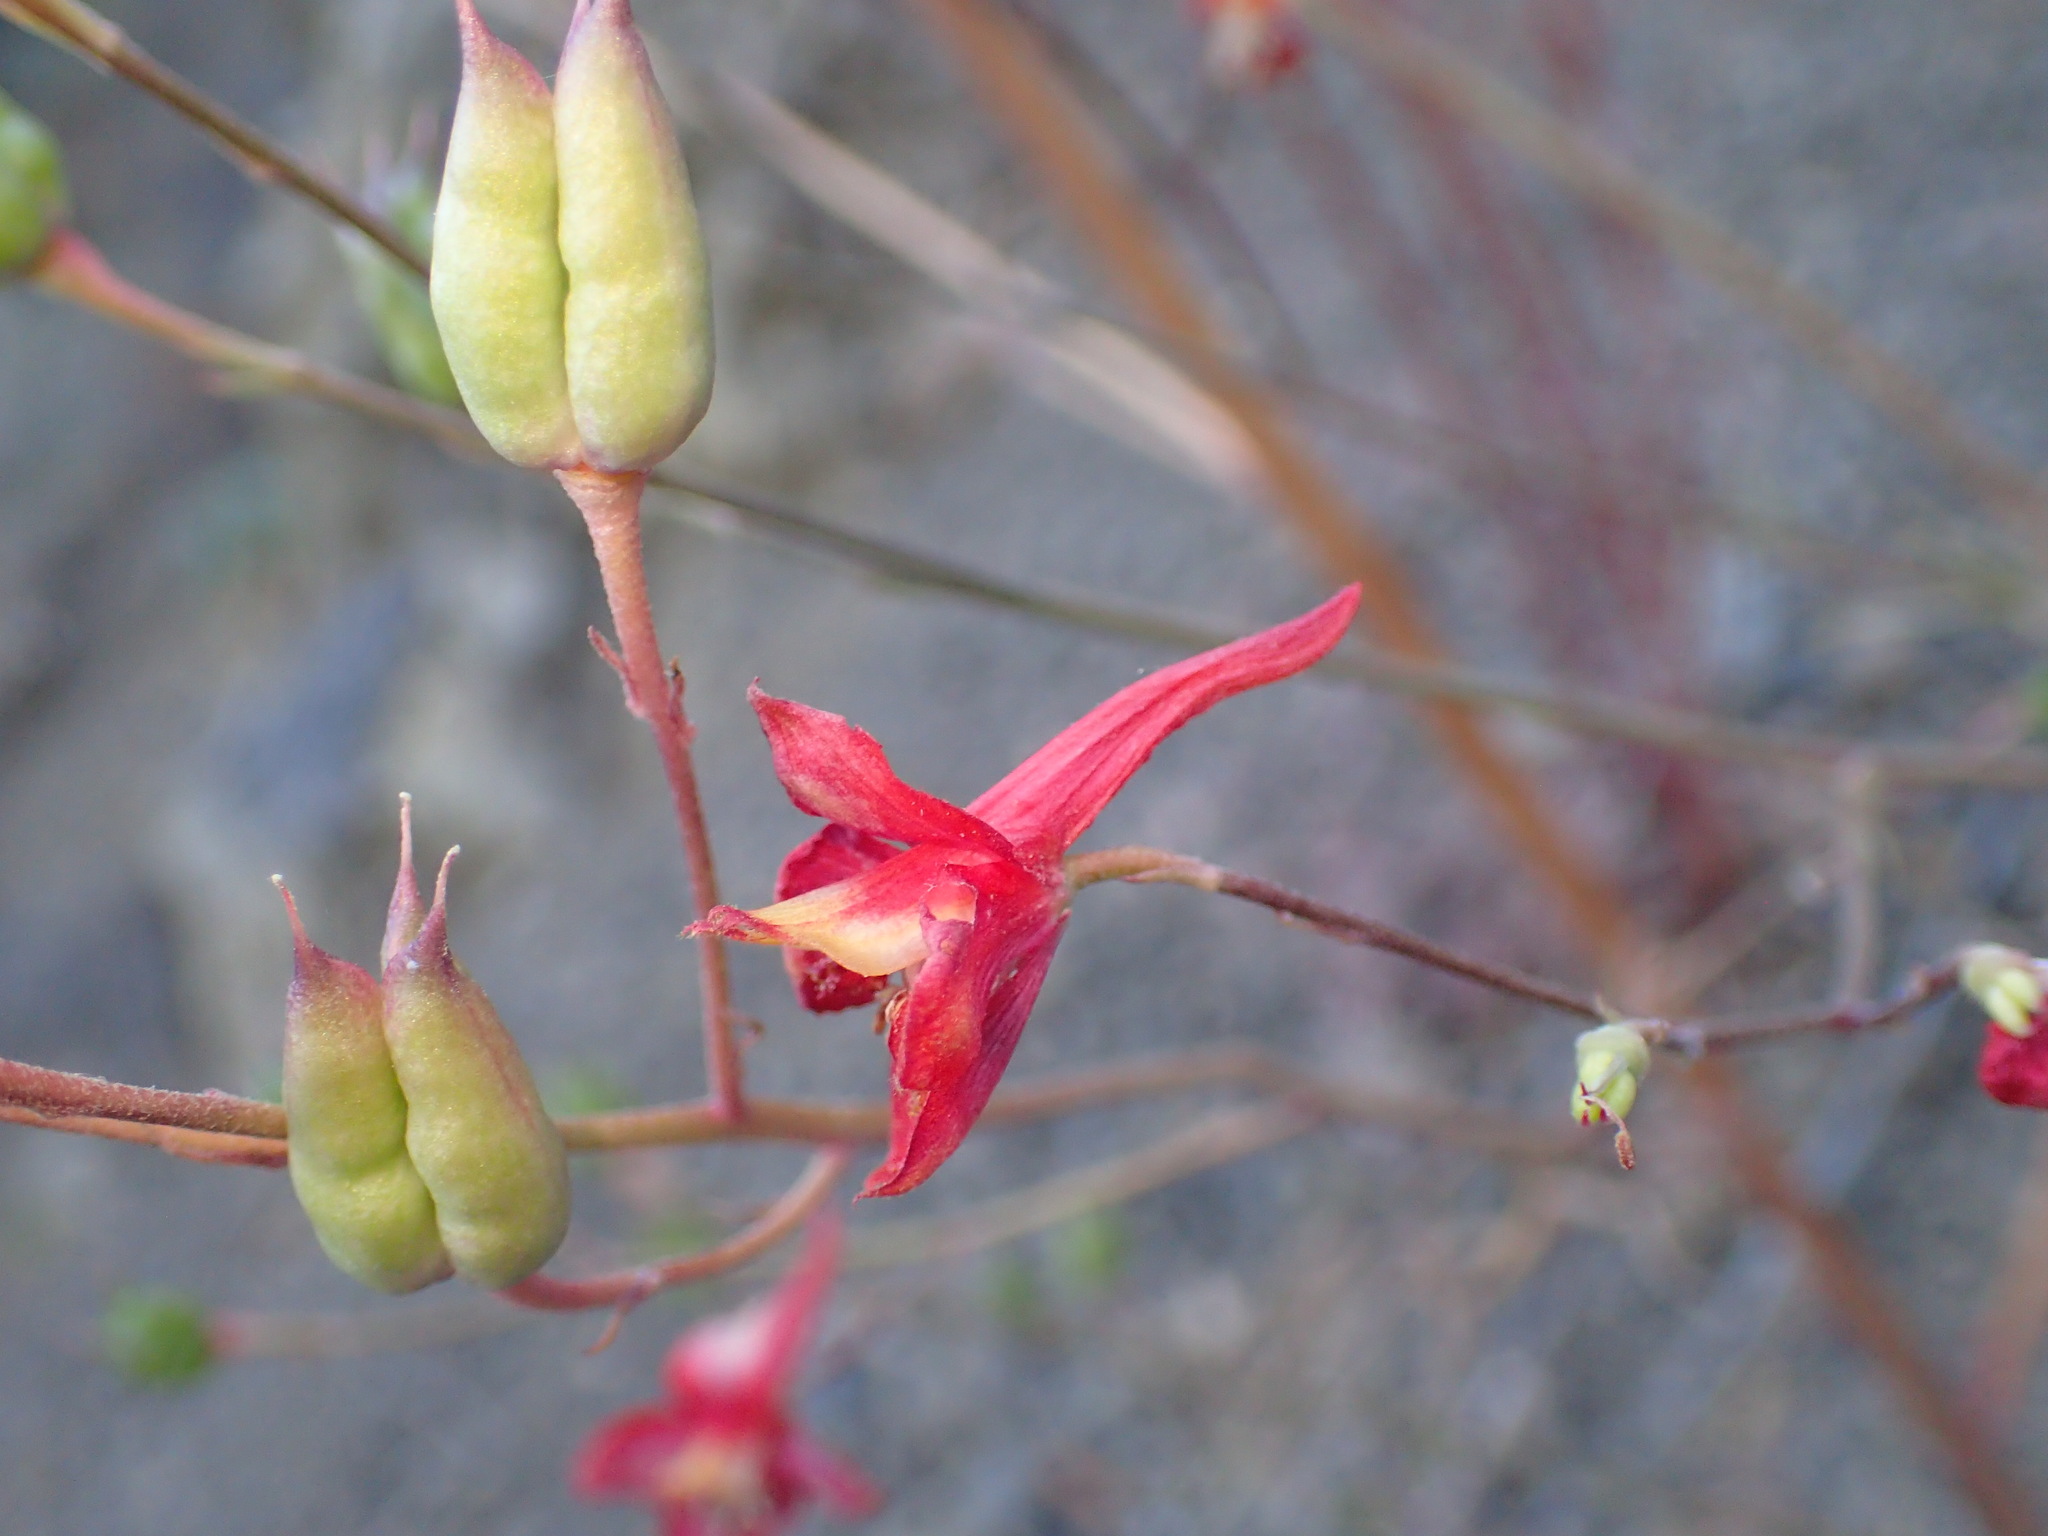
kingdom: Plantae
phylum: Tracheophyta
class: Magnoliopsida
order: Ranunculales
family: Ranunculaceae
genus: Delphinium
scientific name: Delphinium cardinale
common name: Scarlet larkspur
